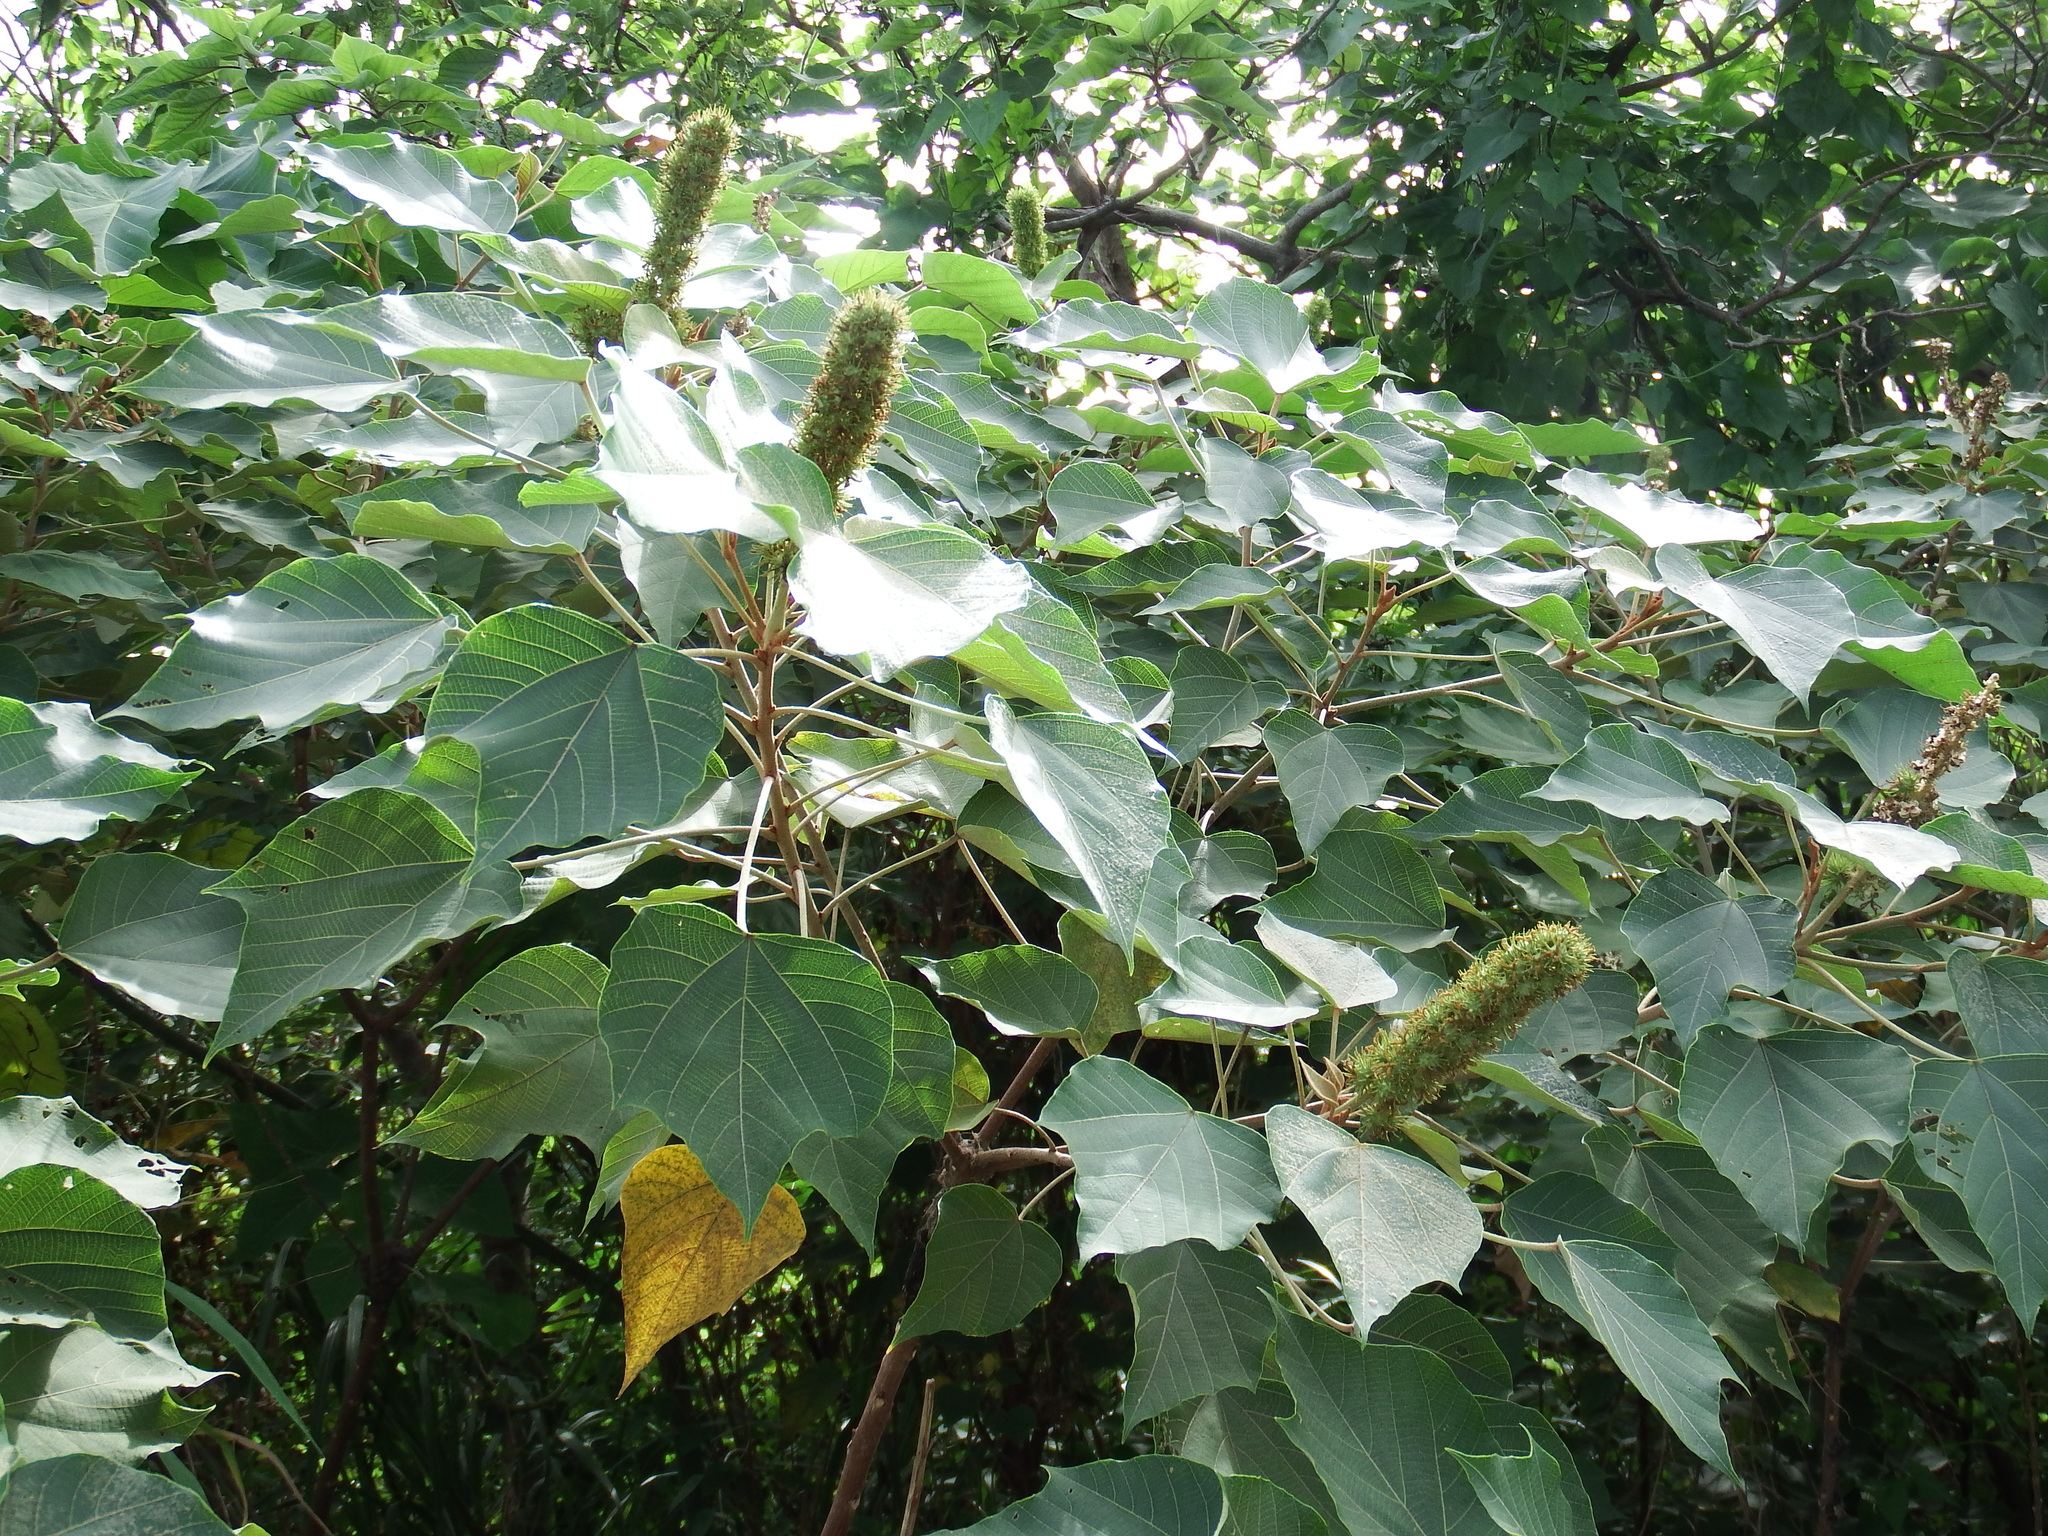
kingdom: Plantae
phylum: Tracheophyta
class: Magnoliopsida
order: Malpighiales
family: Euphorbiaceae
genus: Mallotus
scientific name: Mallotus japonicus
